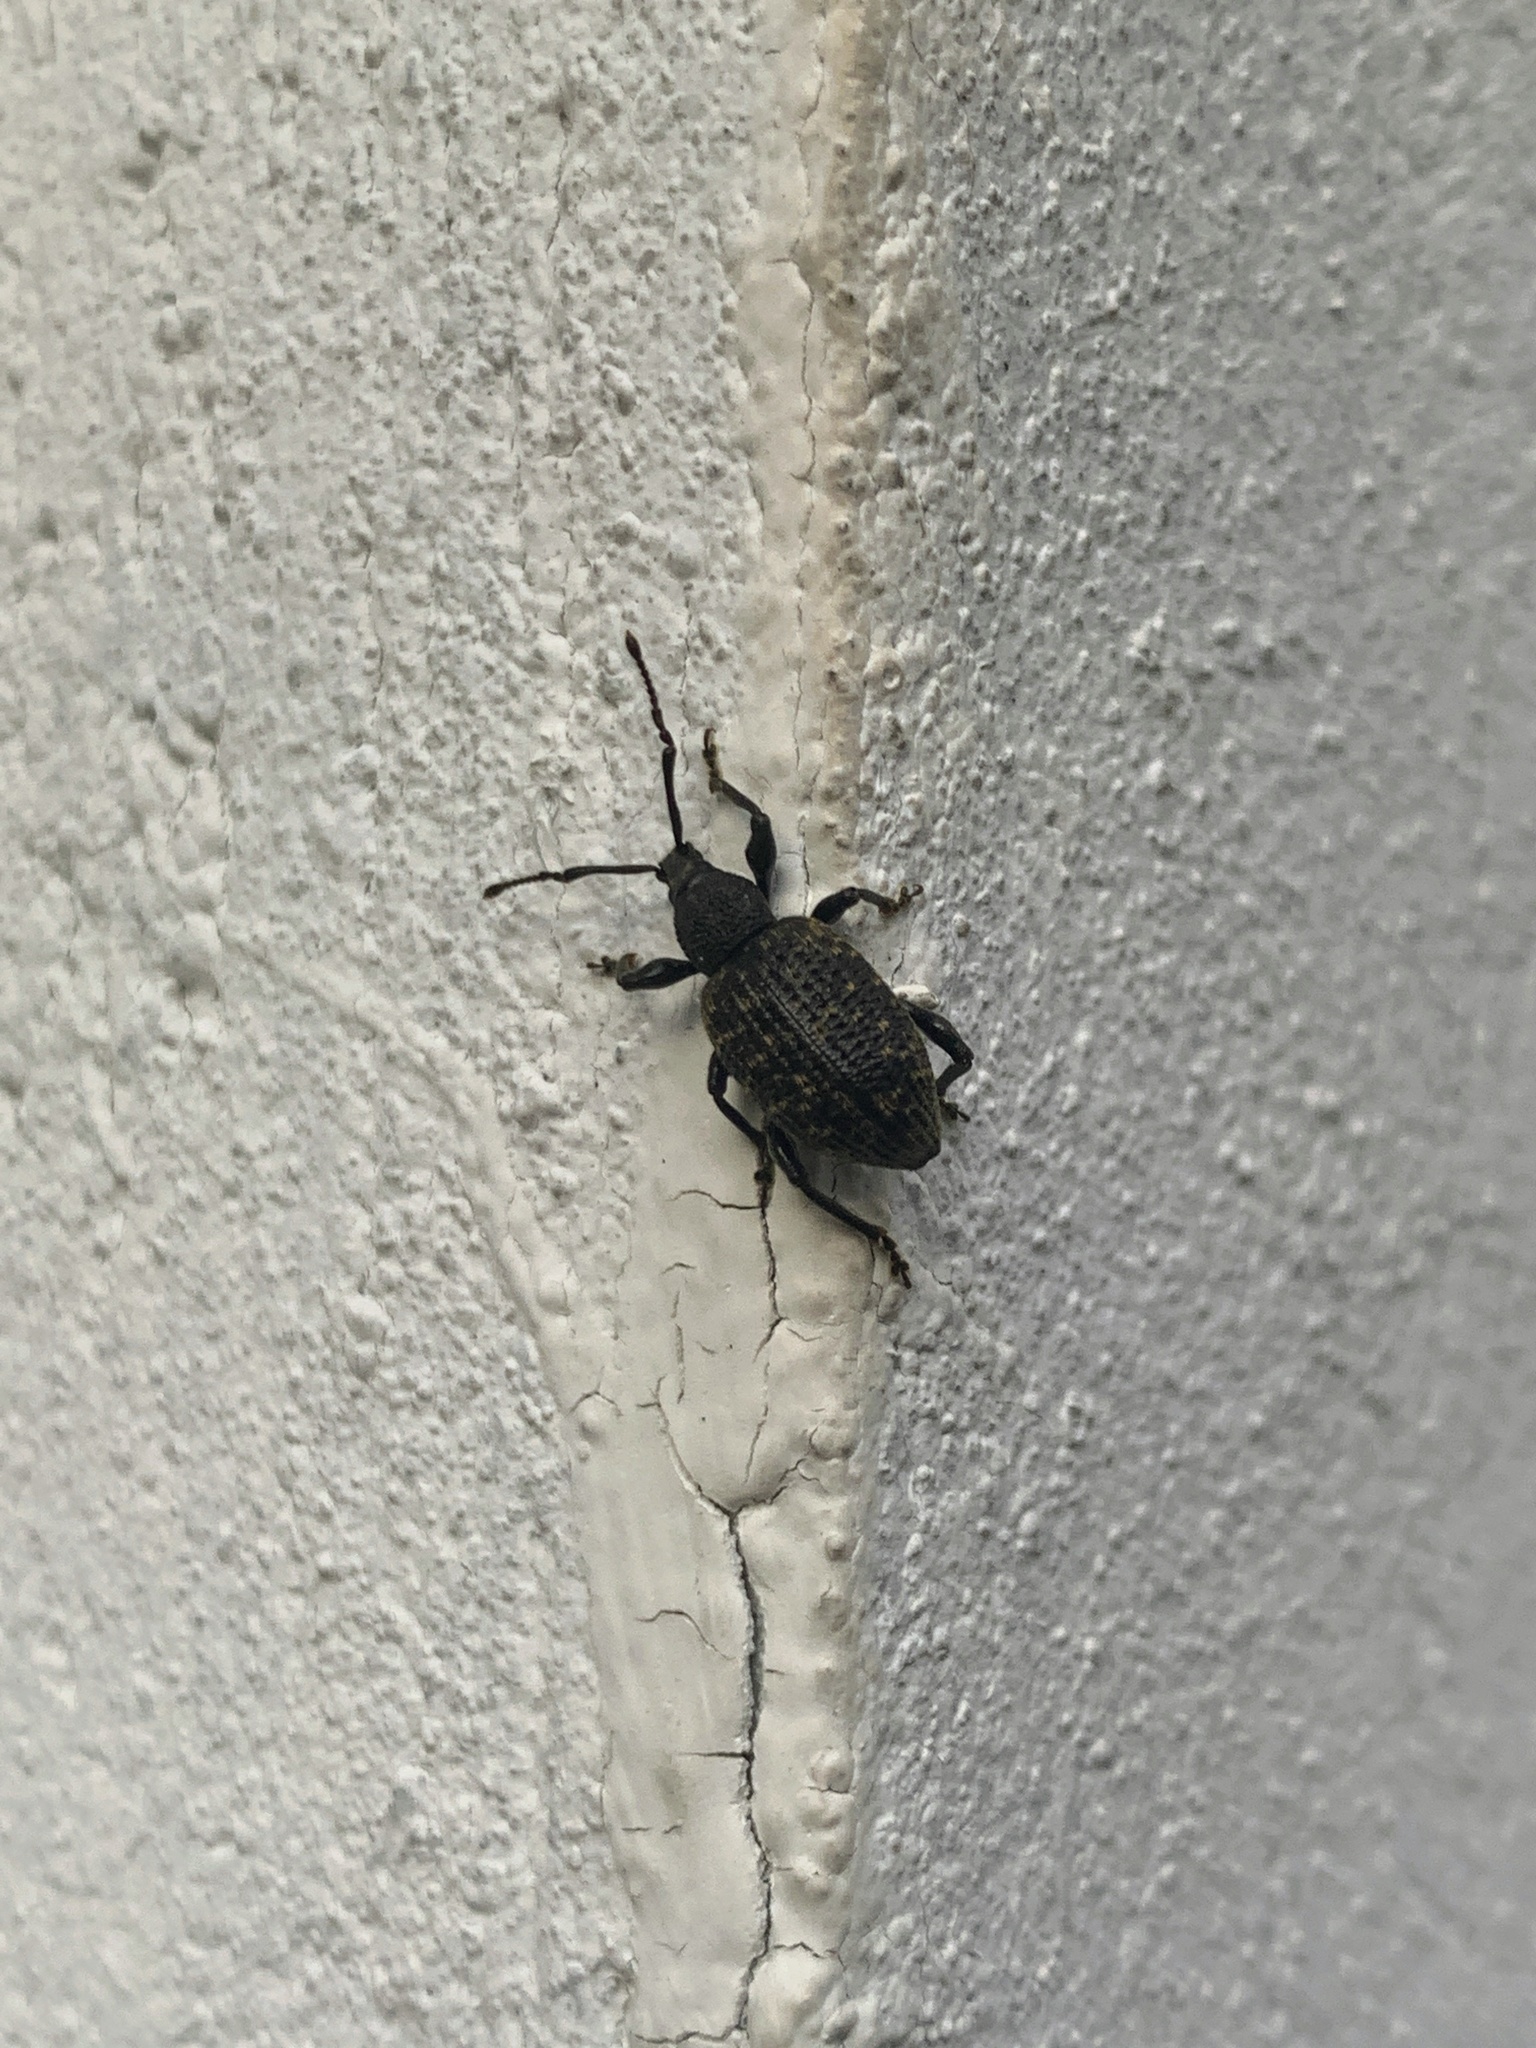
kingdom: Animalia
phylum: Arthropoda
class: Insecta
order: Coleoptera
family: Curculionidae
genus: Otiorhynchus
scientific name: Otiorhynchus sulcatus
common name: Black vine weevil
